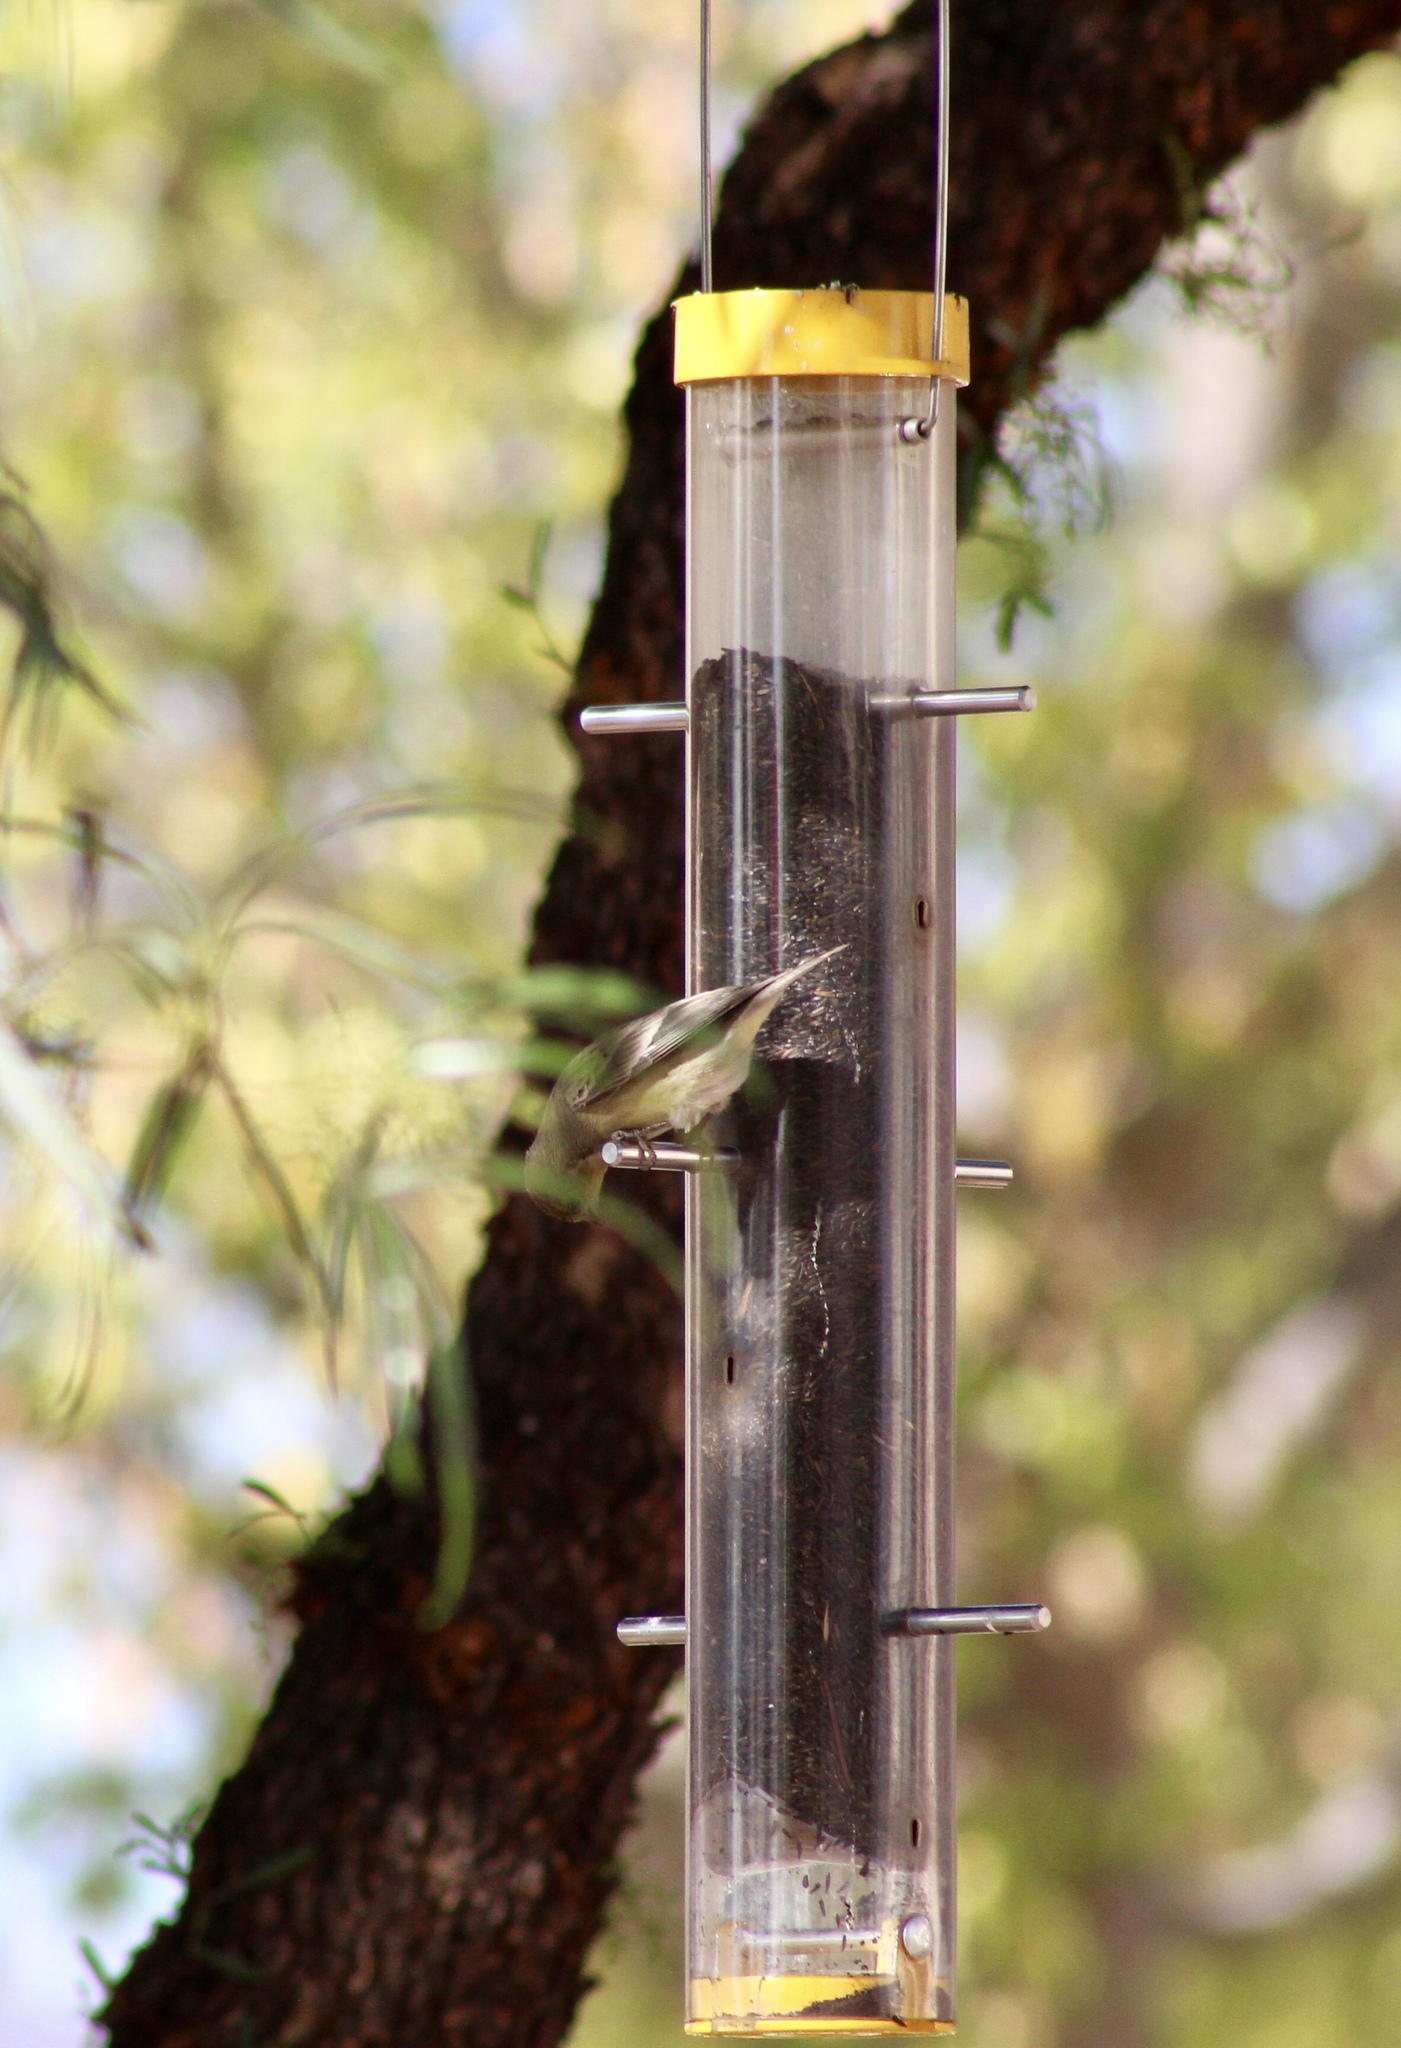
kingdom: Animalia
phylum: Chordata
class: Aves
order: Passeriformes
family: Fringillidae
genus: Spinus
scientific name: Spinus psaltria
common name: Lesser goldfinch
